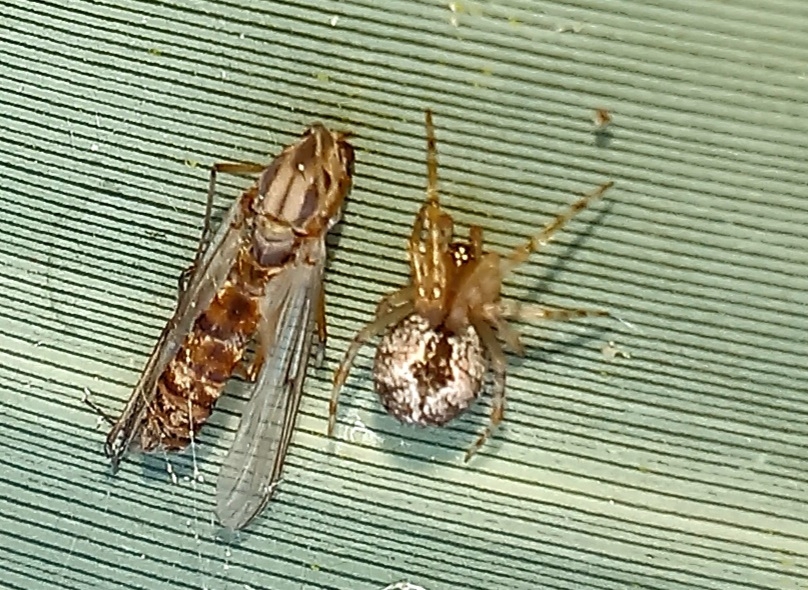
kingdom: Animalia
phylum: Arthropoda
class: Arachnida
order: Araneae
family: Theridiidae
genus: Cryptachaea
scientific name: Cryptachaea veruculata
